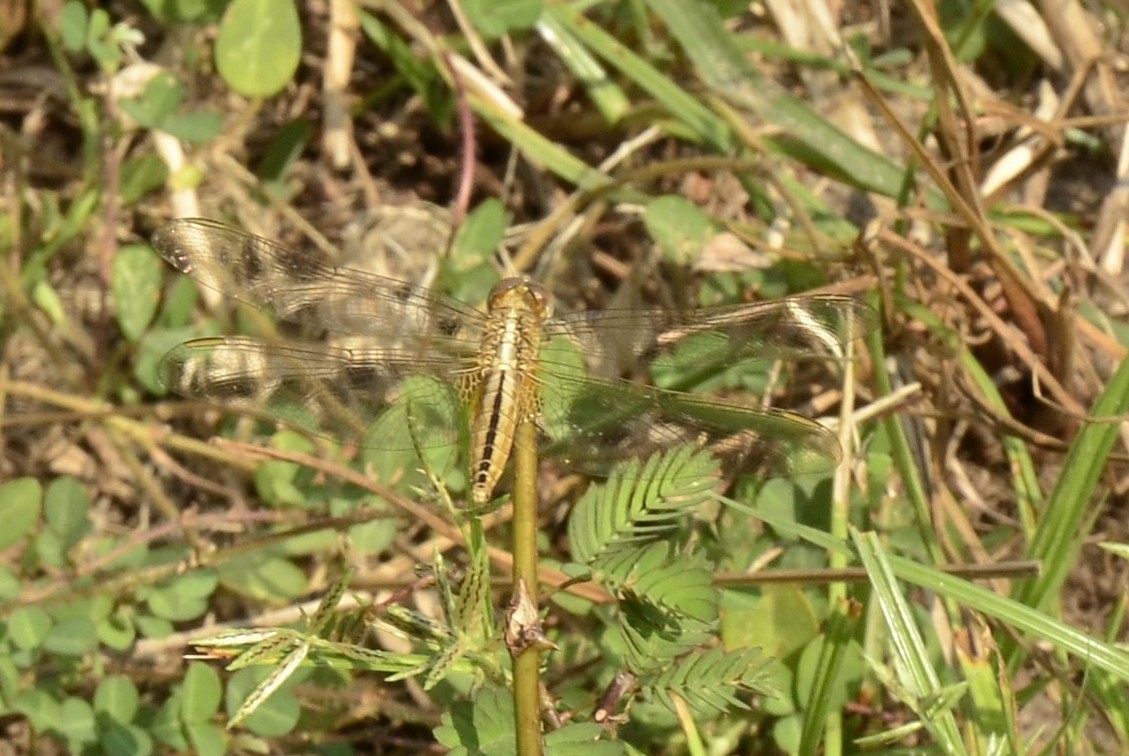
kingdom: Animalia
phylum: Arthropoda
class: Insecta
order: Odonata
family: Libellulidae
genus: Crocothemis
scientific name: Crocothemis servilia
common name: Scarlet skimmer
